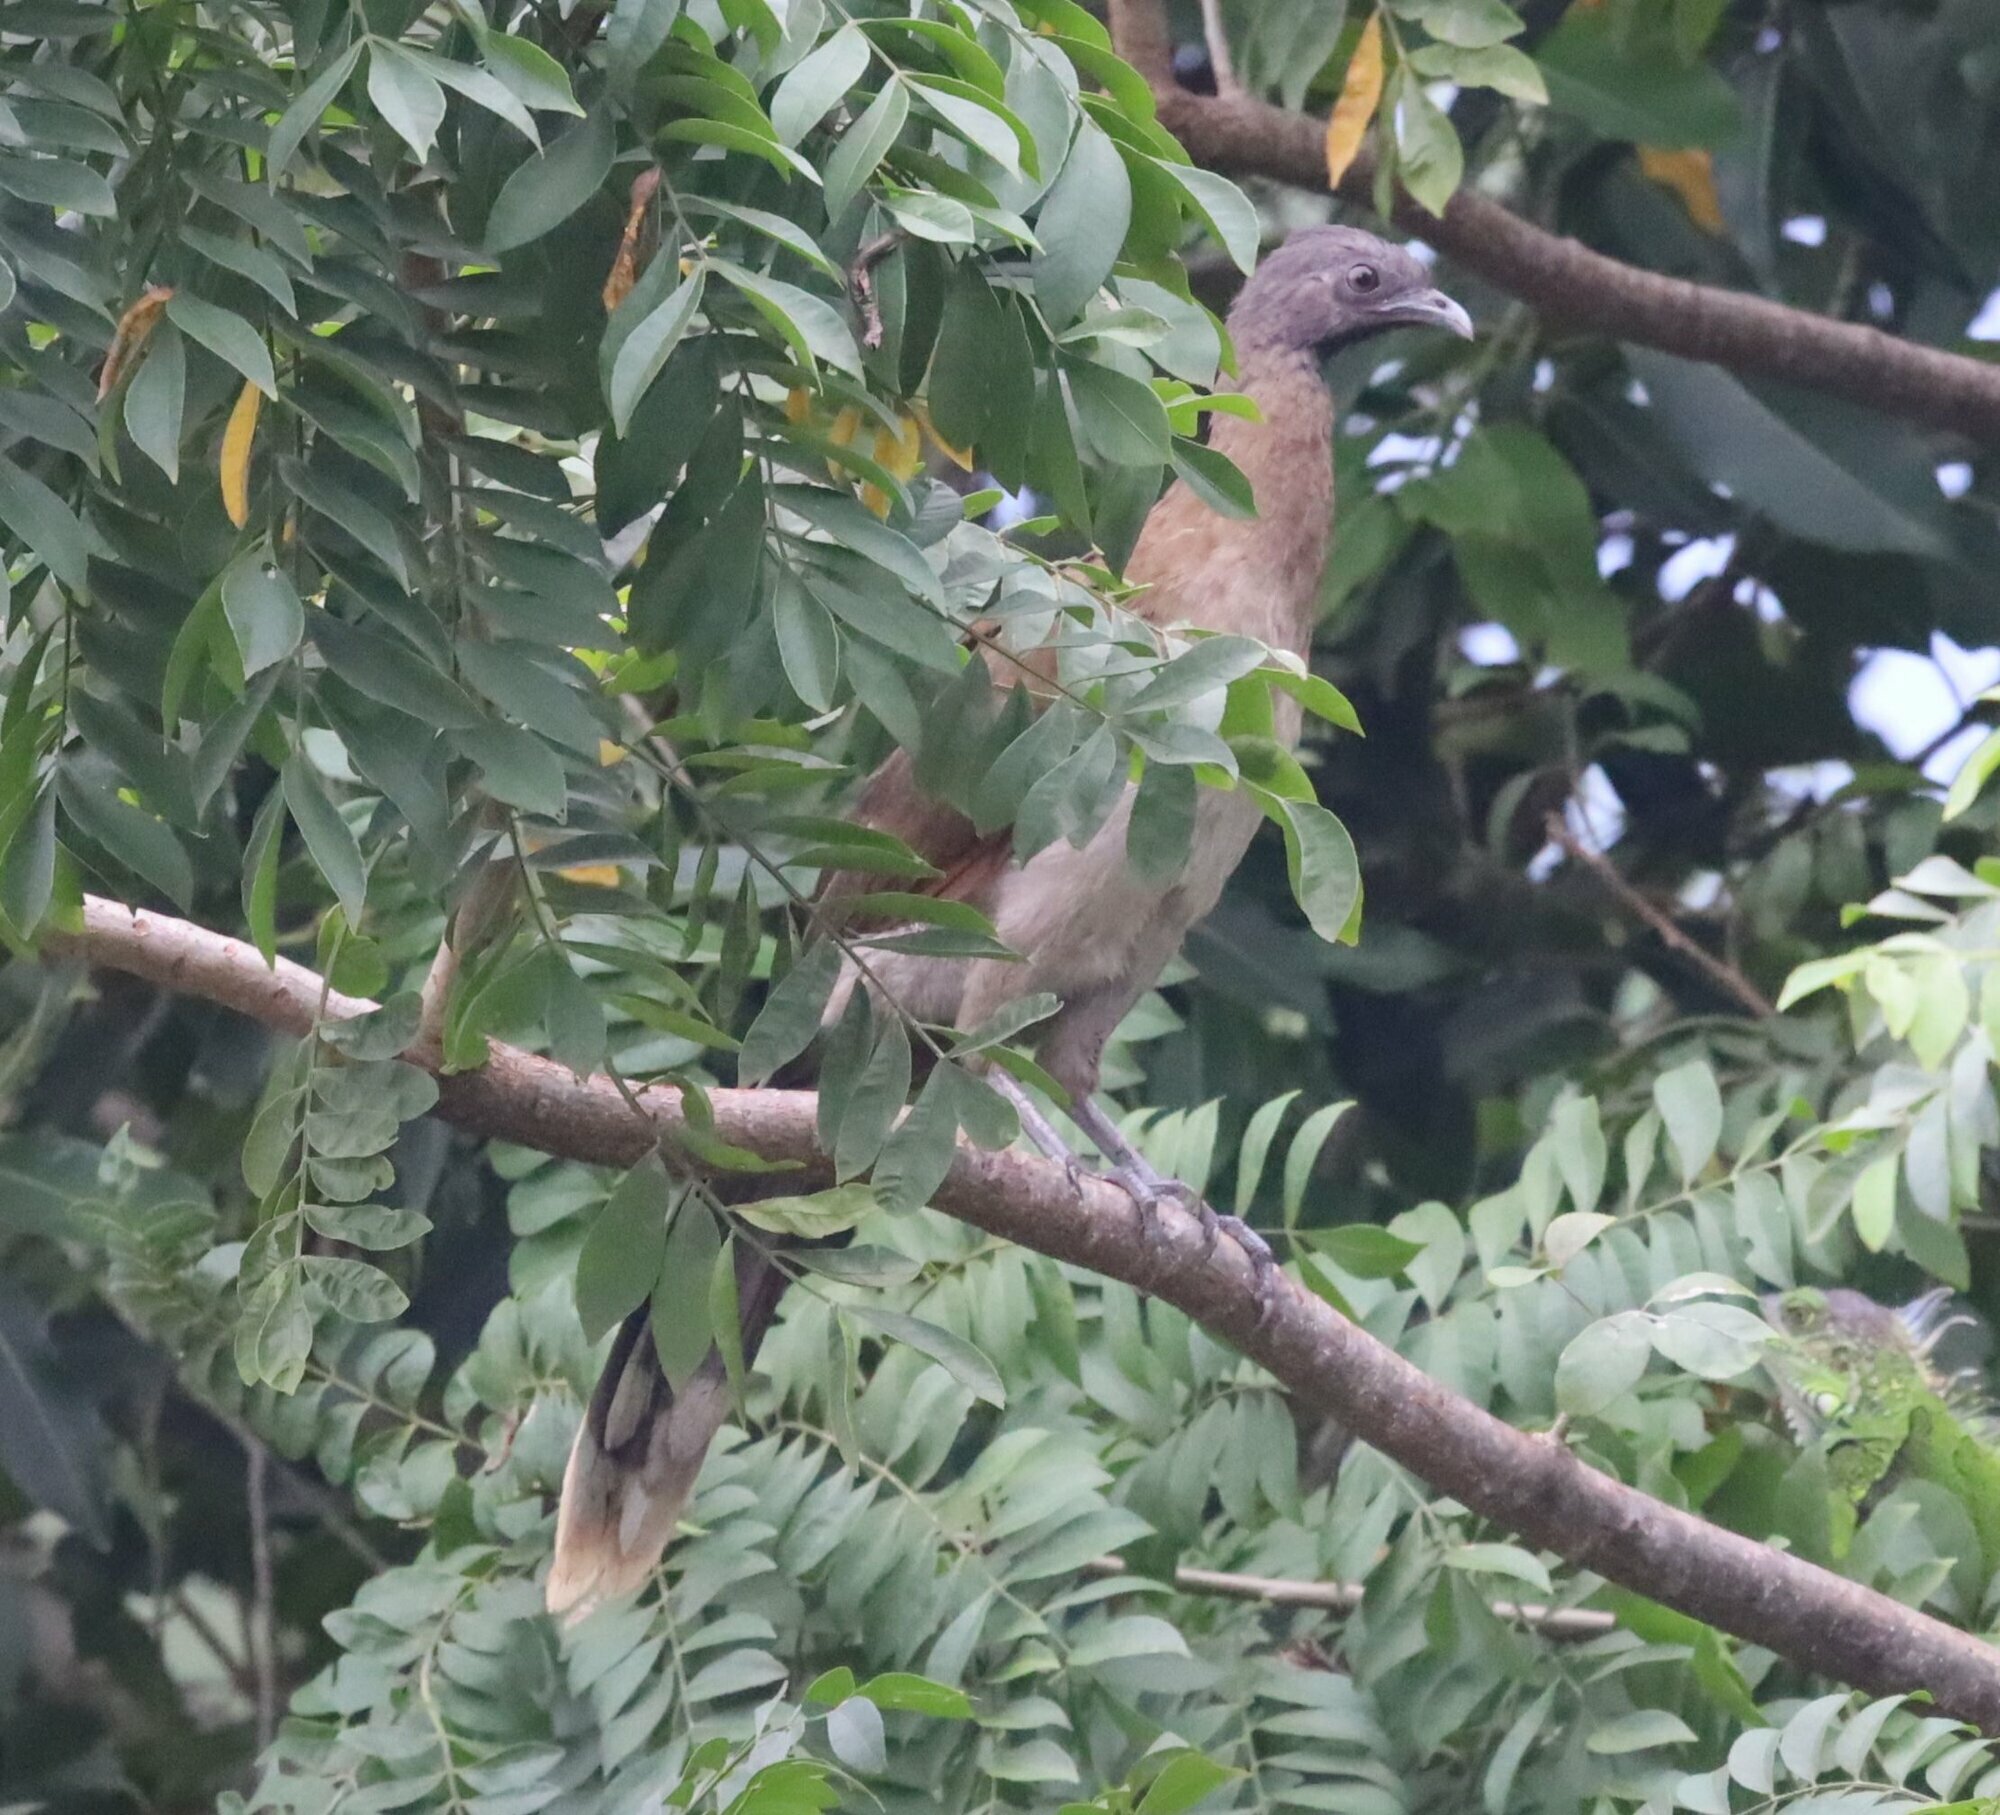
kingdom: Animalia
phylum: Chordata
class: Aves
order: Galliformes
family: Cracidae
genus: Ortalis
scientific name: Ortalis cinereiceps
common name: Grey-headed chachalaca
